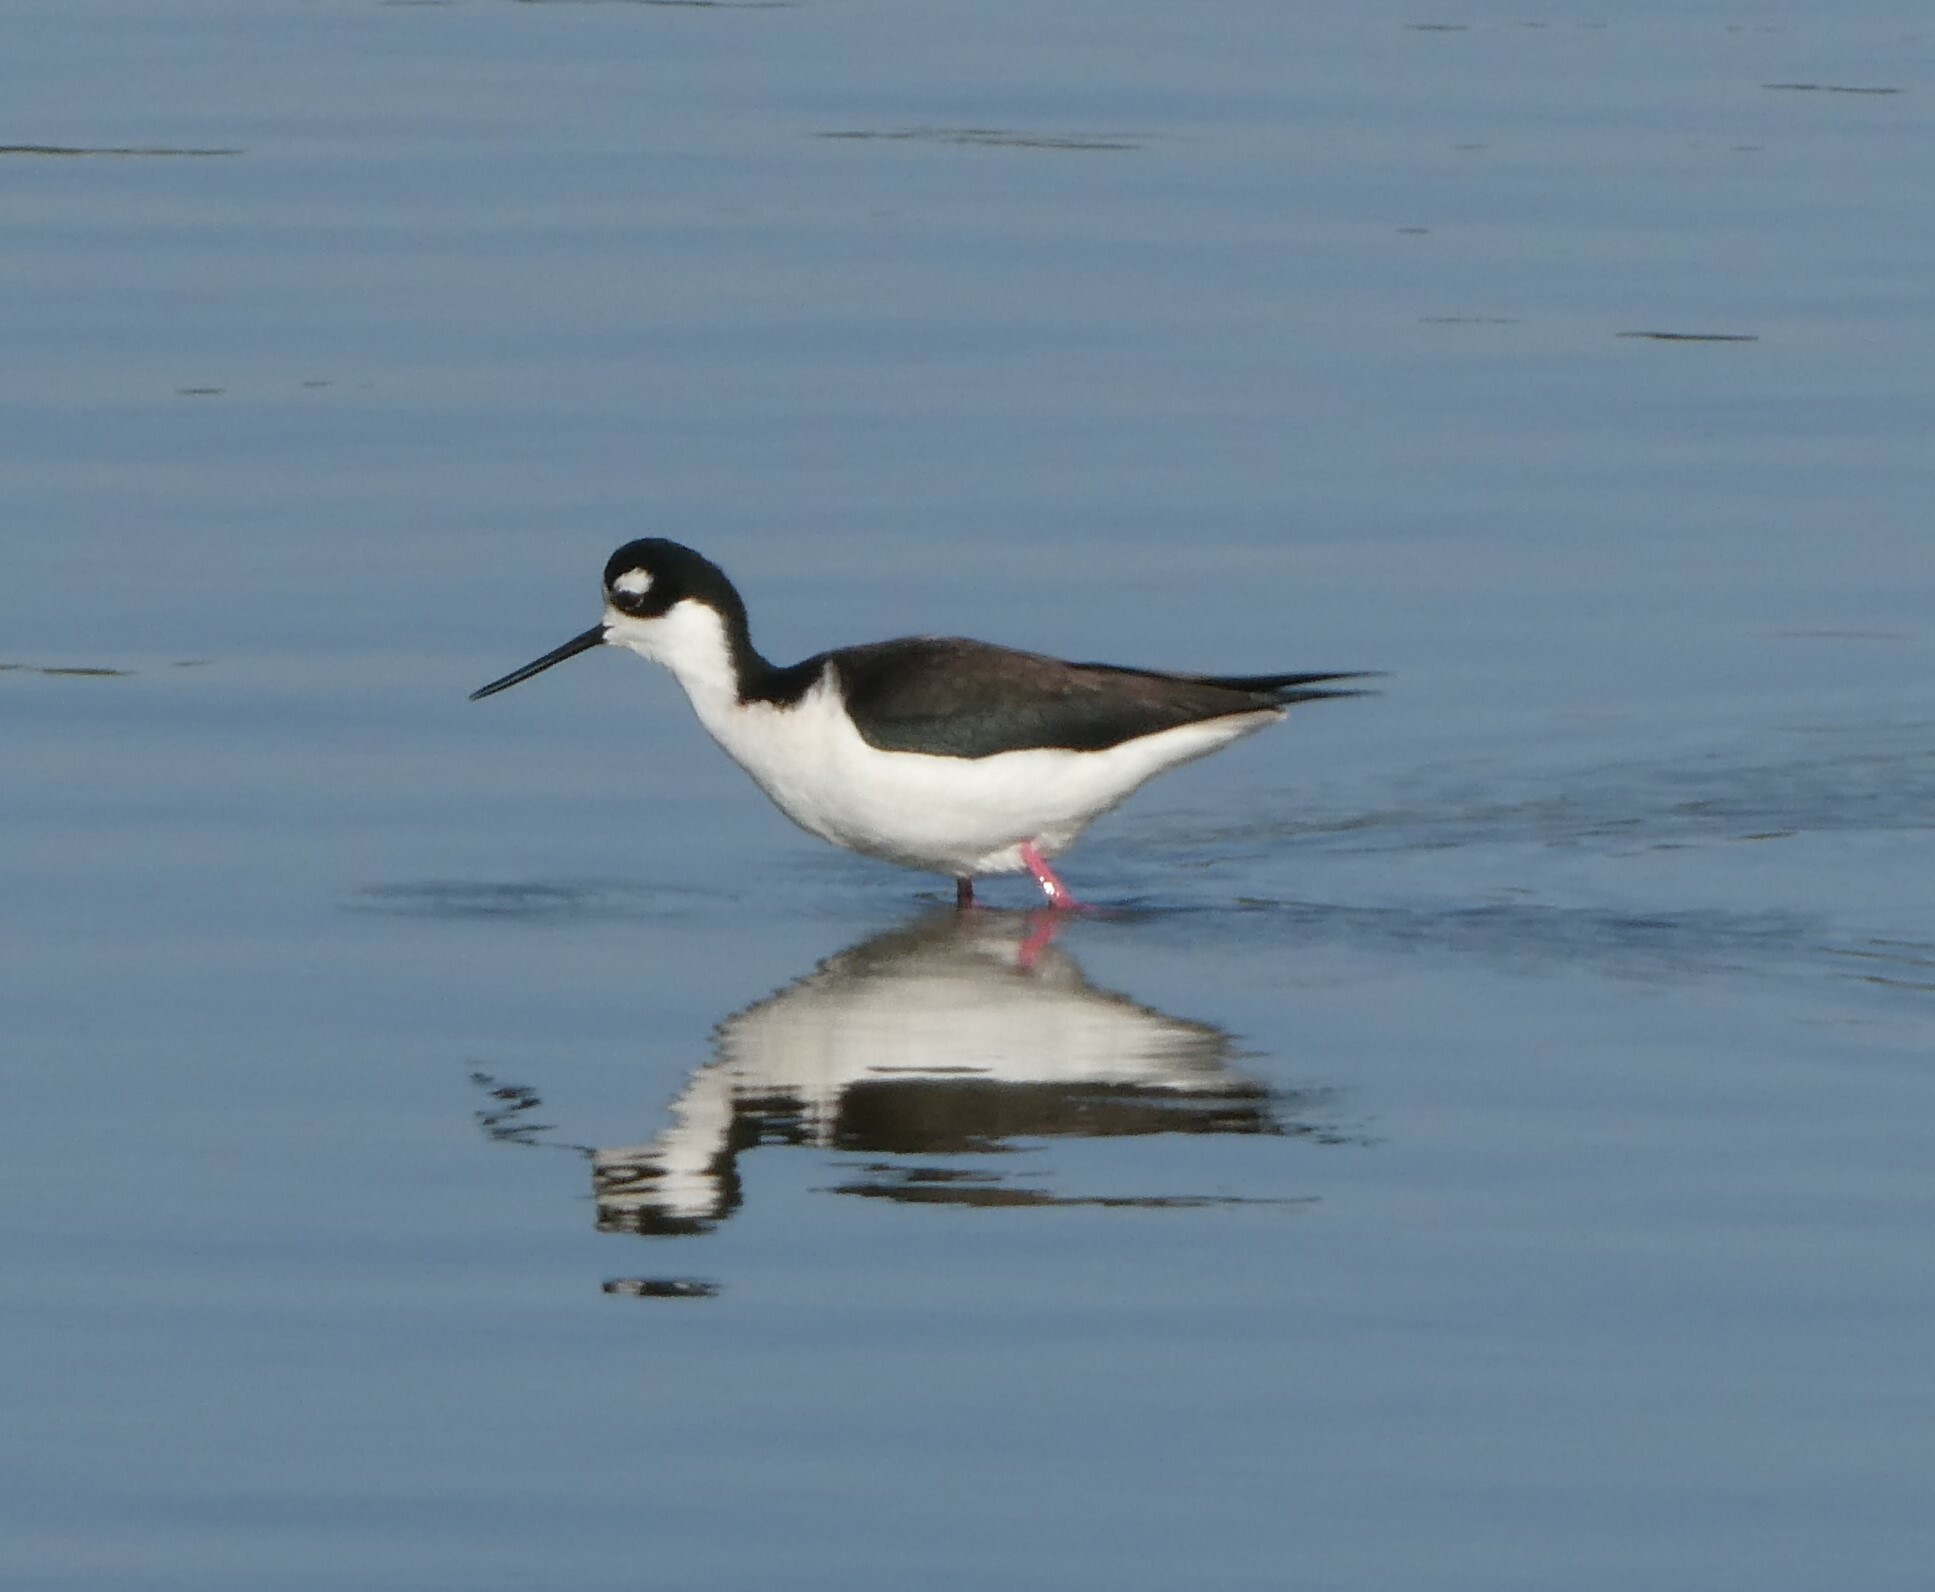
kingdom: Animalia
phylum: Chordata
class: Aves
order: Charadriiformes
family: Recurvirostridae
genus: Himantopus
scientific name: Himantopus mexicanus
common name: Black-necked stilt
